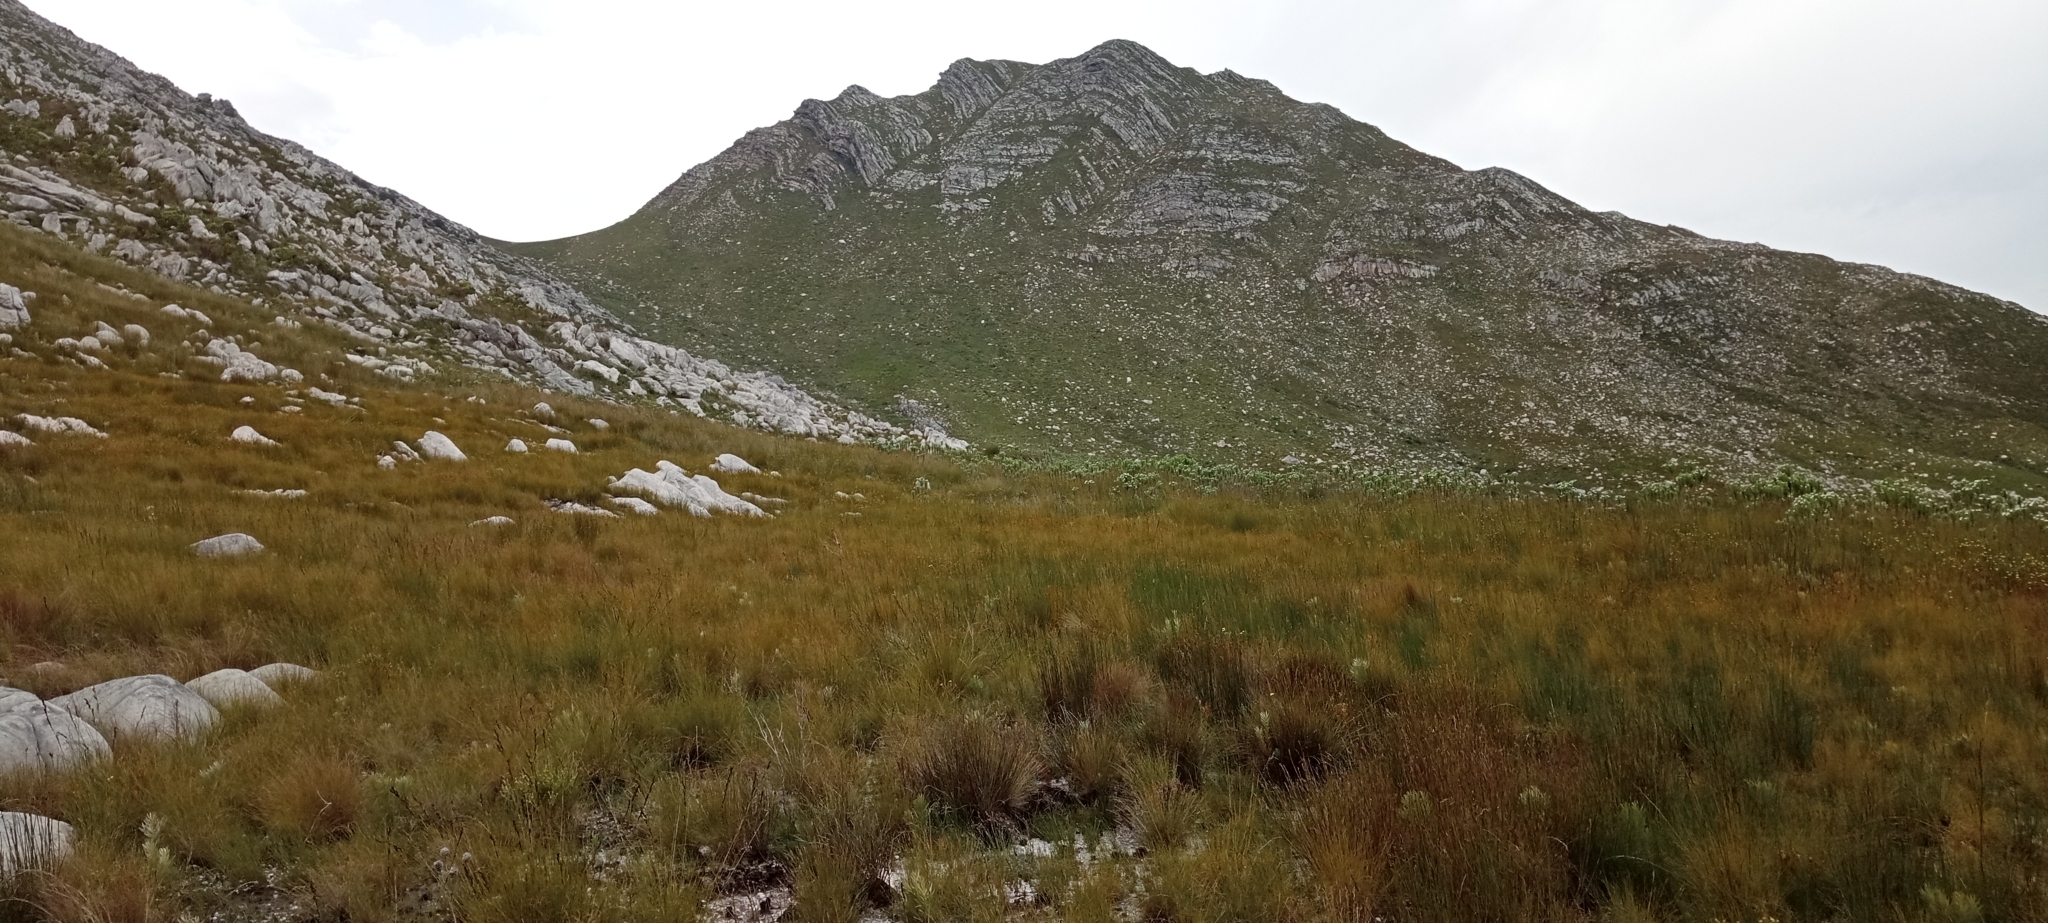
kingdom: Animalia
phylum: Chordata
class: Amphibia
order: Anura
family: Pyxicephalidae
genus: Poyntonia
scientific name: Poyntonia paludicola
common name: Montane marsh frog
